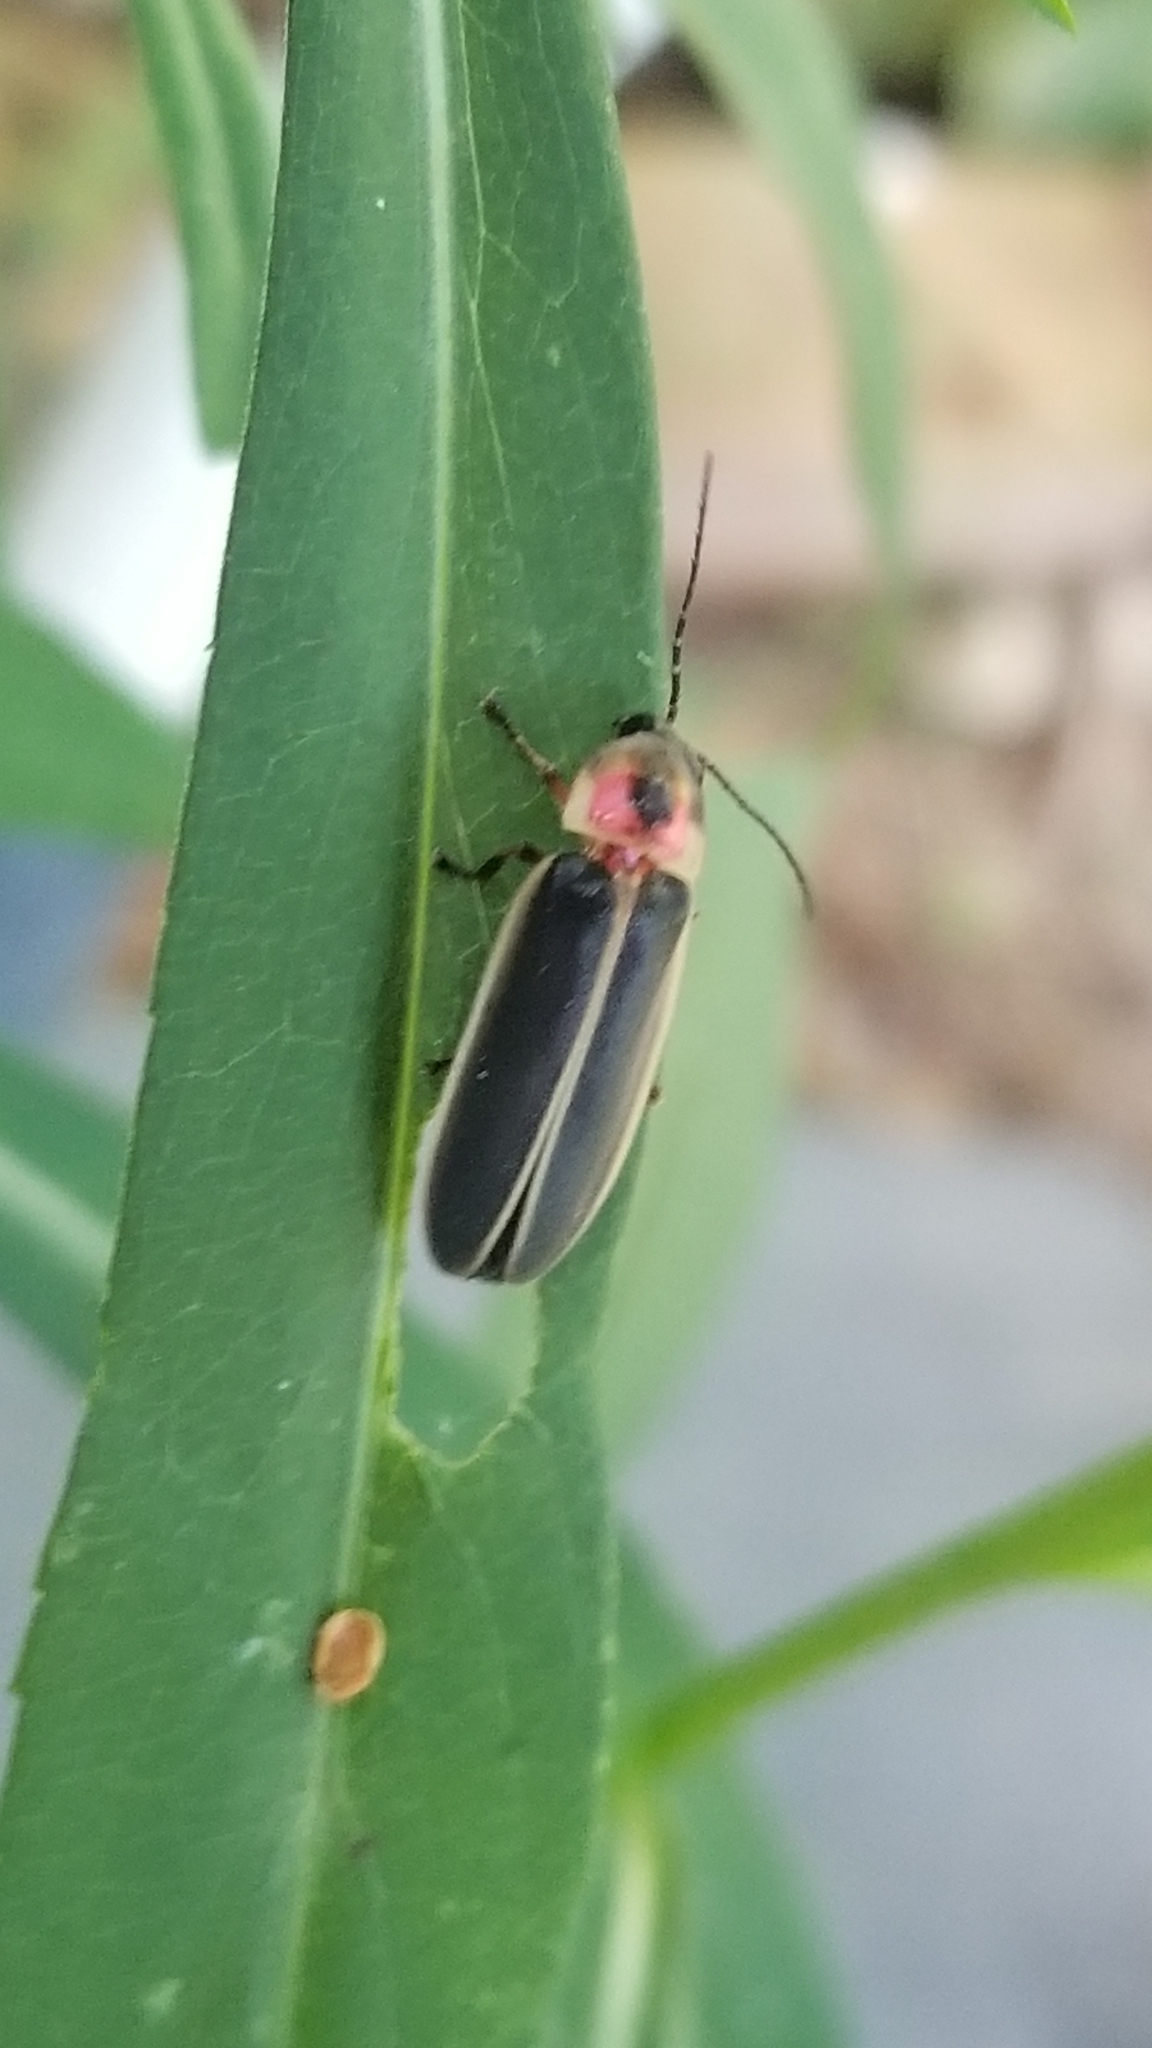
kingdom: Animalia
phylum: Arthropoda
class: Insecta
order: Coleoptera
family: Lampyridae
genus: Photinus
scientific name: Photinus pyralis
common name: Big dipper firefly
